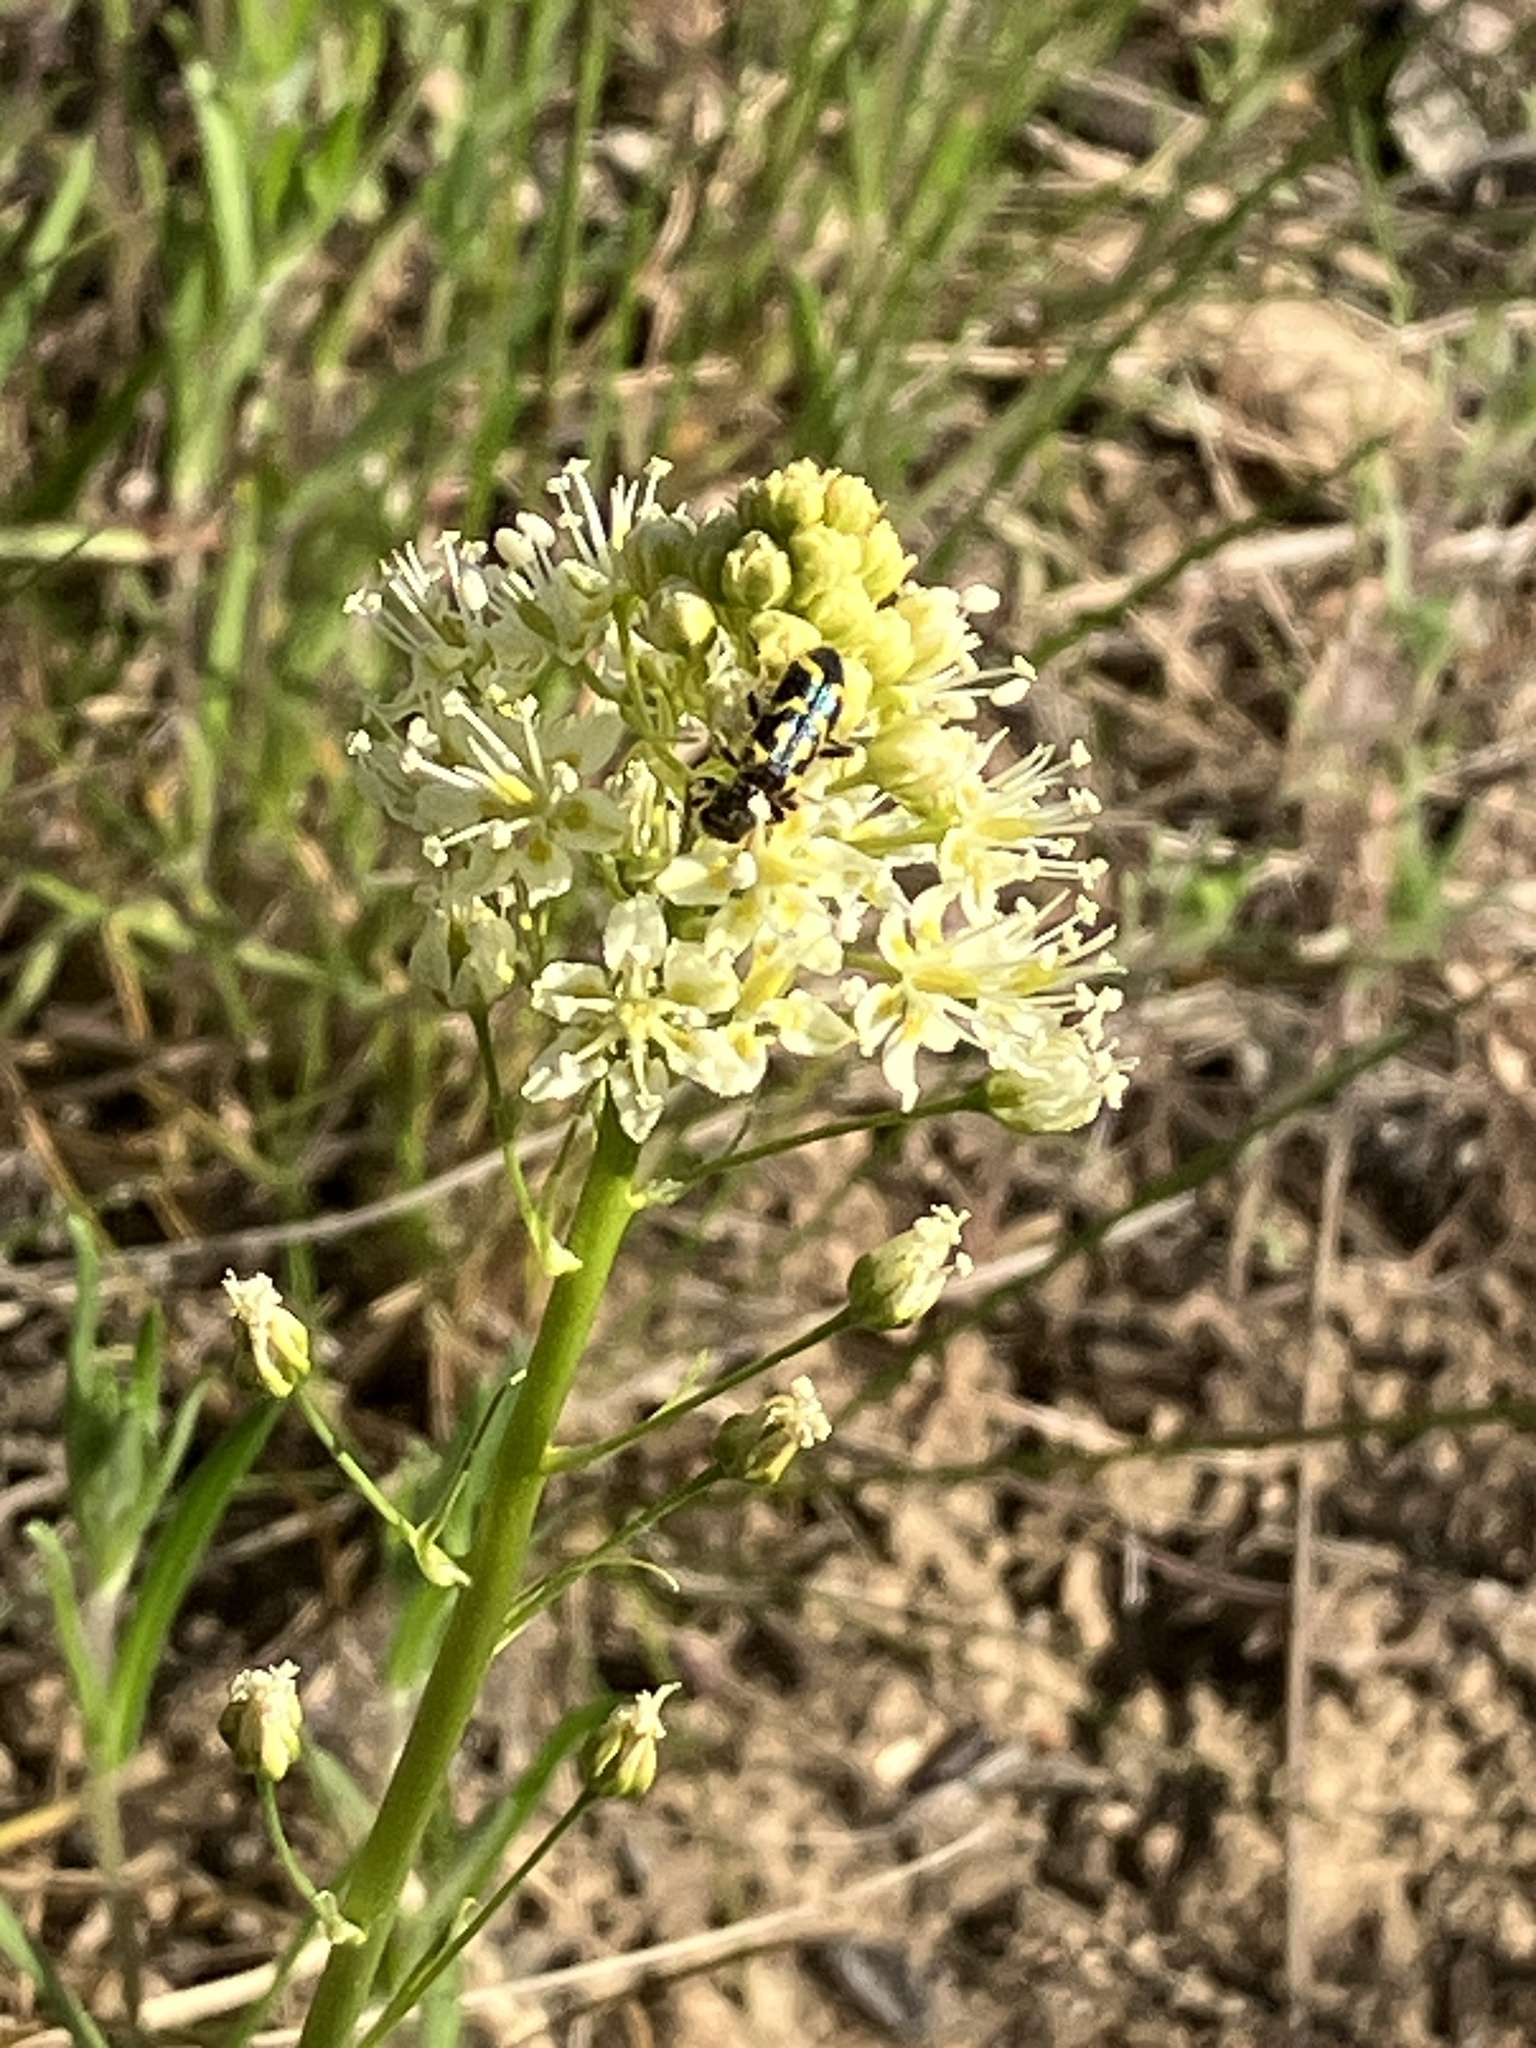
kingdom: Animalia
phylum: Arthropoda
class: Insecta
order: Coleoptera
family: Cleridae
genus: Trichodes
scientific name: Trichodes ornatus
